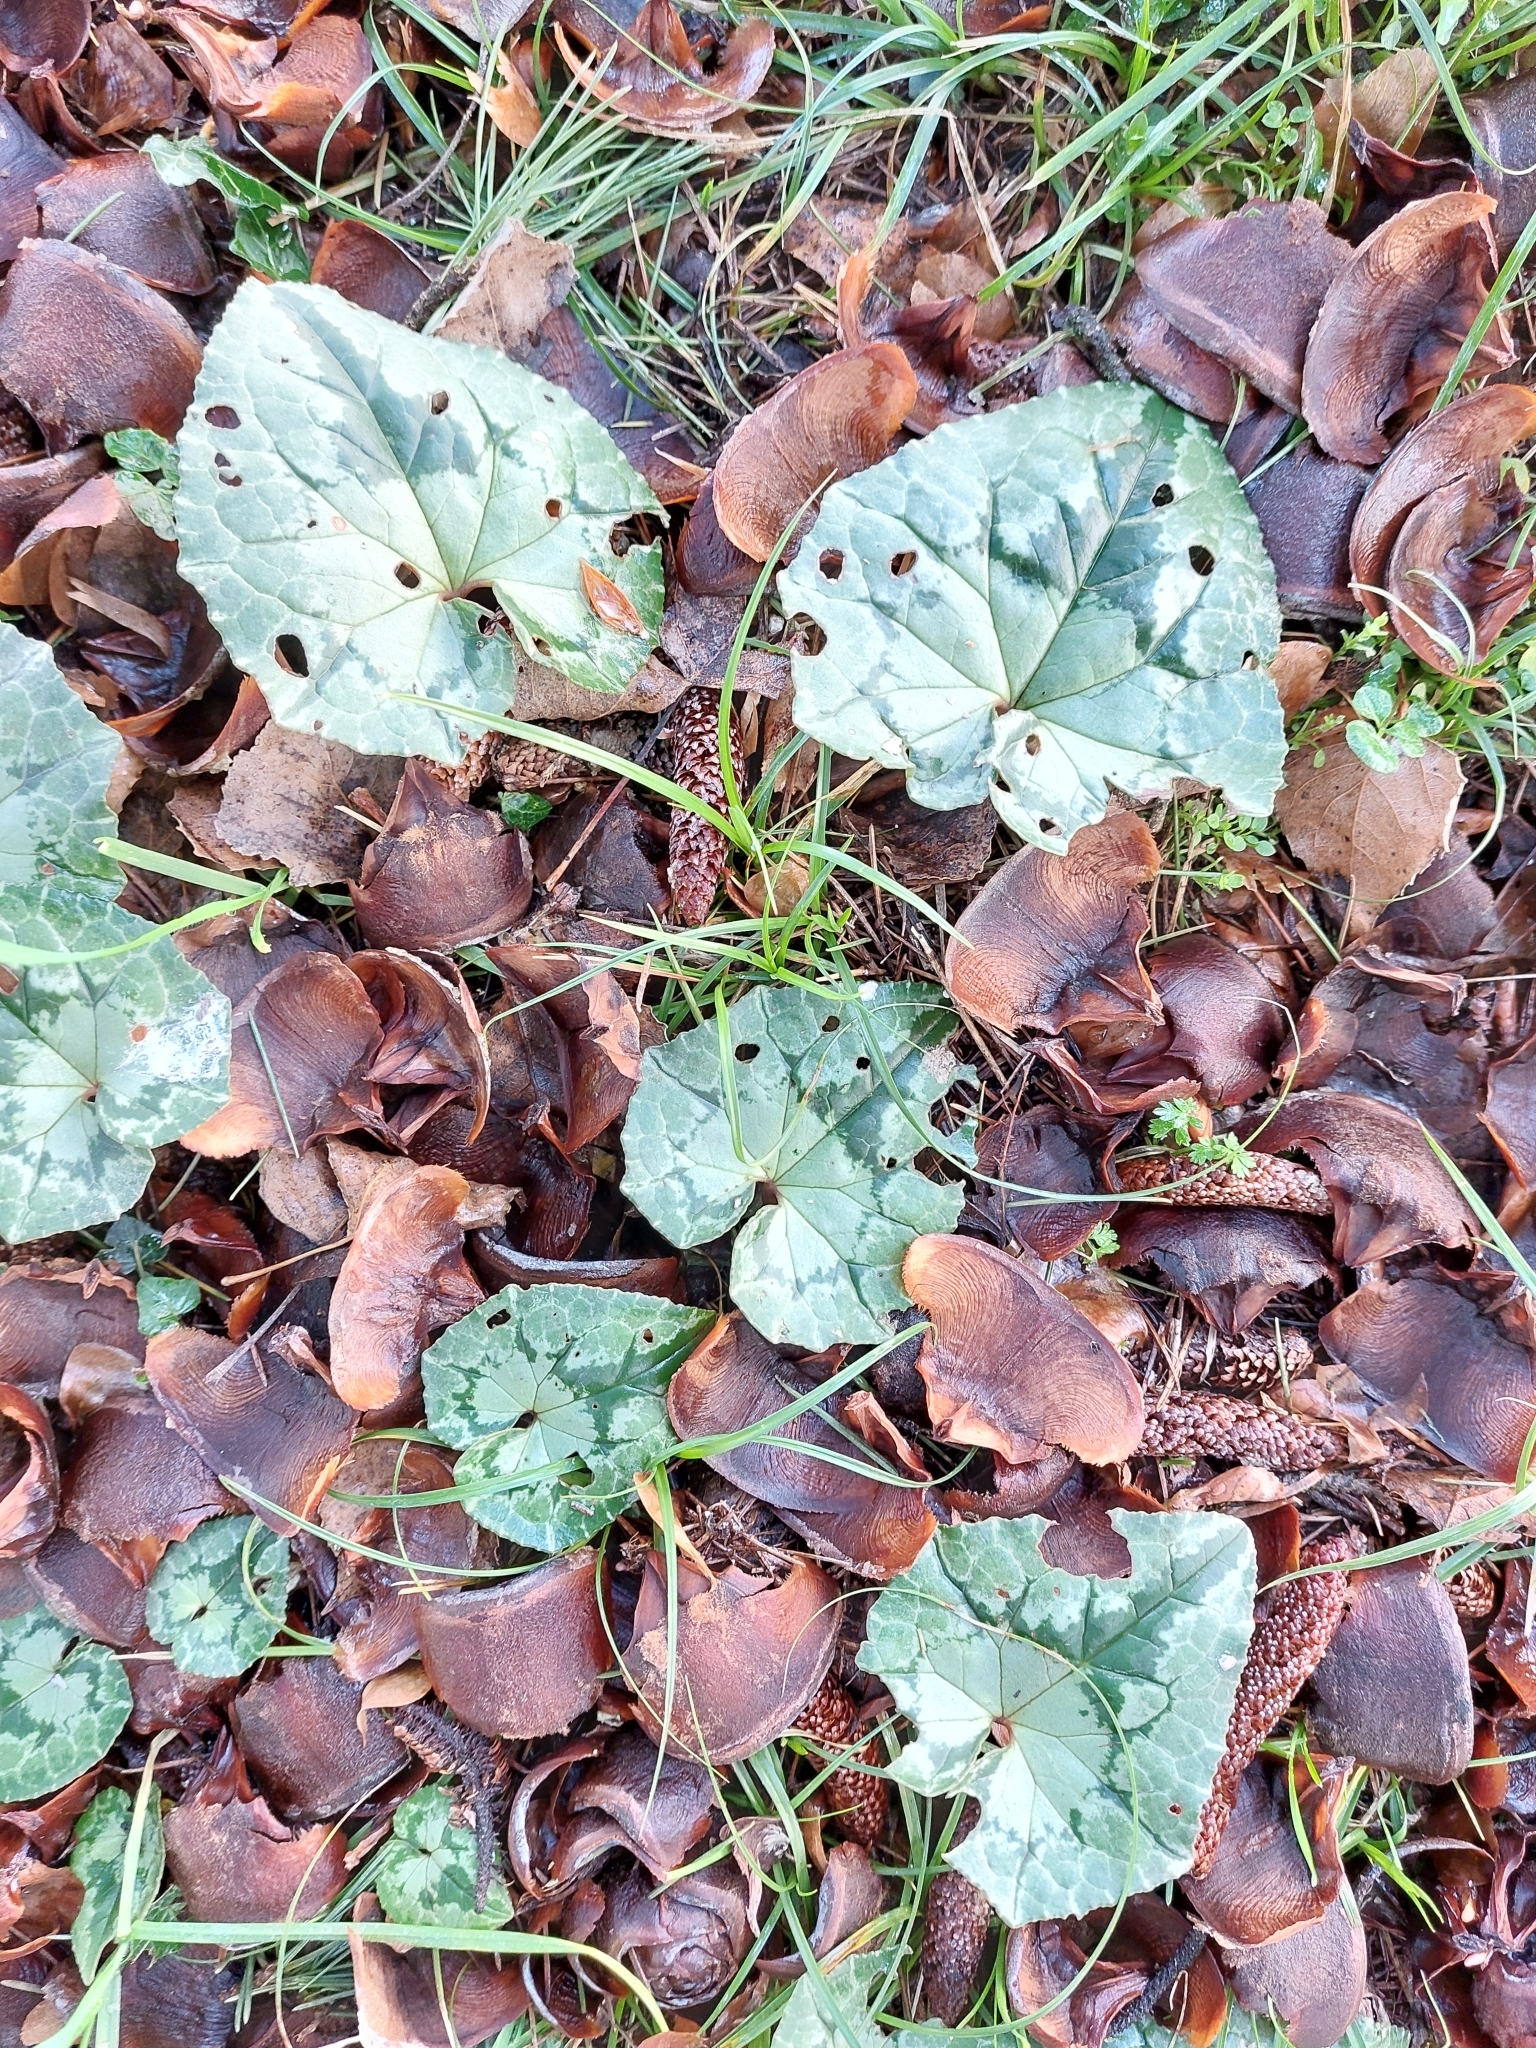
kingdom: Plantae
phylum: Tracheophyta
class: Magnoliopsida
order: Ericales
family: Primulaceae
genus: Cyclamen
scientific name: Cyclamen hederifolium
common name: Sowbread
